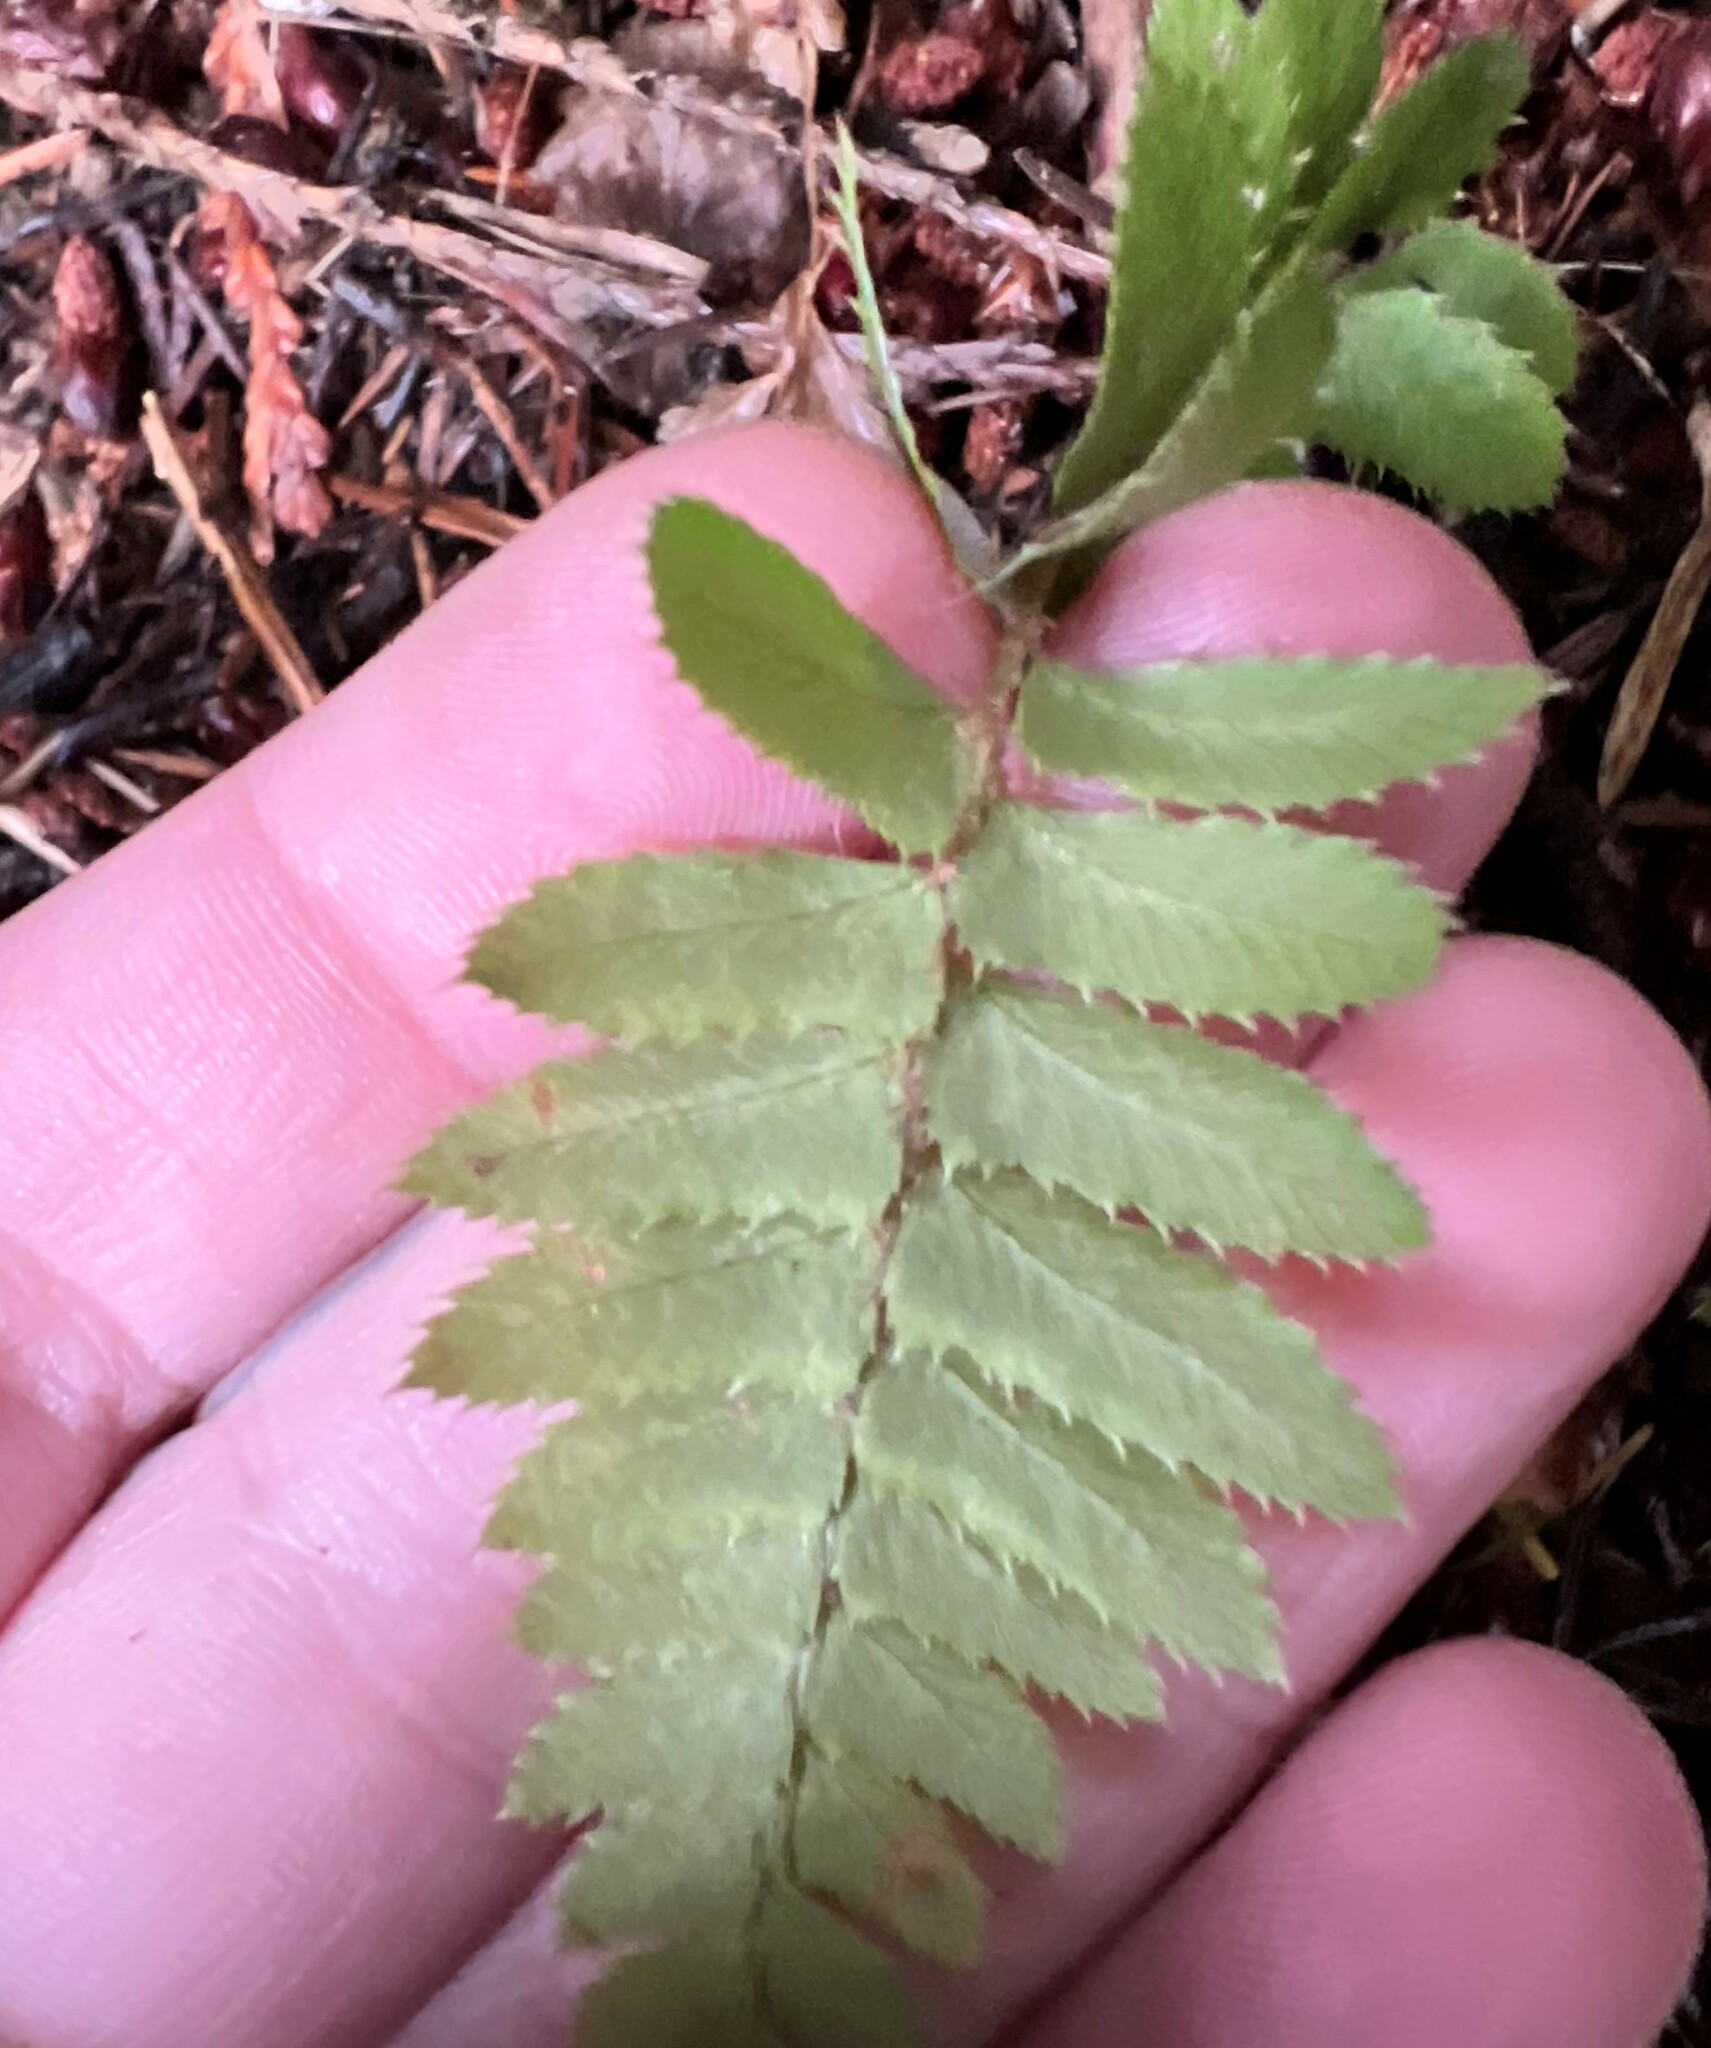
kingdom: Plantae
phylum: Tracheophyta
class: Polypodiopsida
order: Polypodiales
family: Dryopteridaceae
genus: Polystichum
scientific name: Polystichum munitum
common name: Western sword-fern
